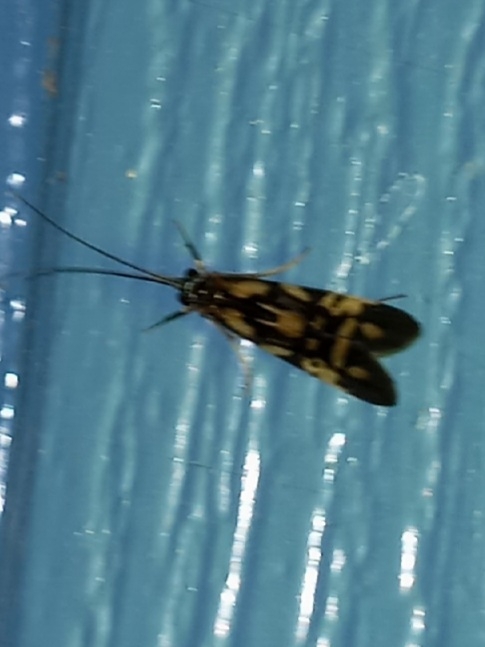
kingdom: Animalia
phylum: Arthropoda
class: Insecta
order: Trichoptera
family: Hydropsychidae
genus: Macrostemum
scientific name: Macrostemum carolina
